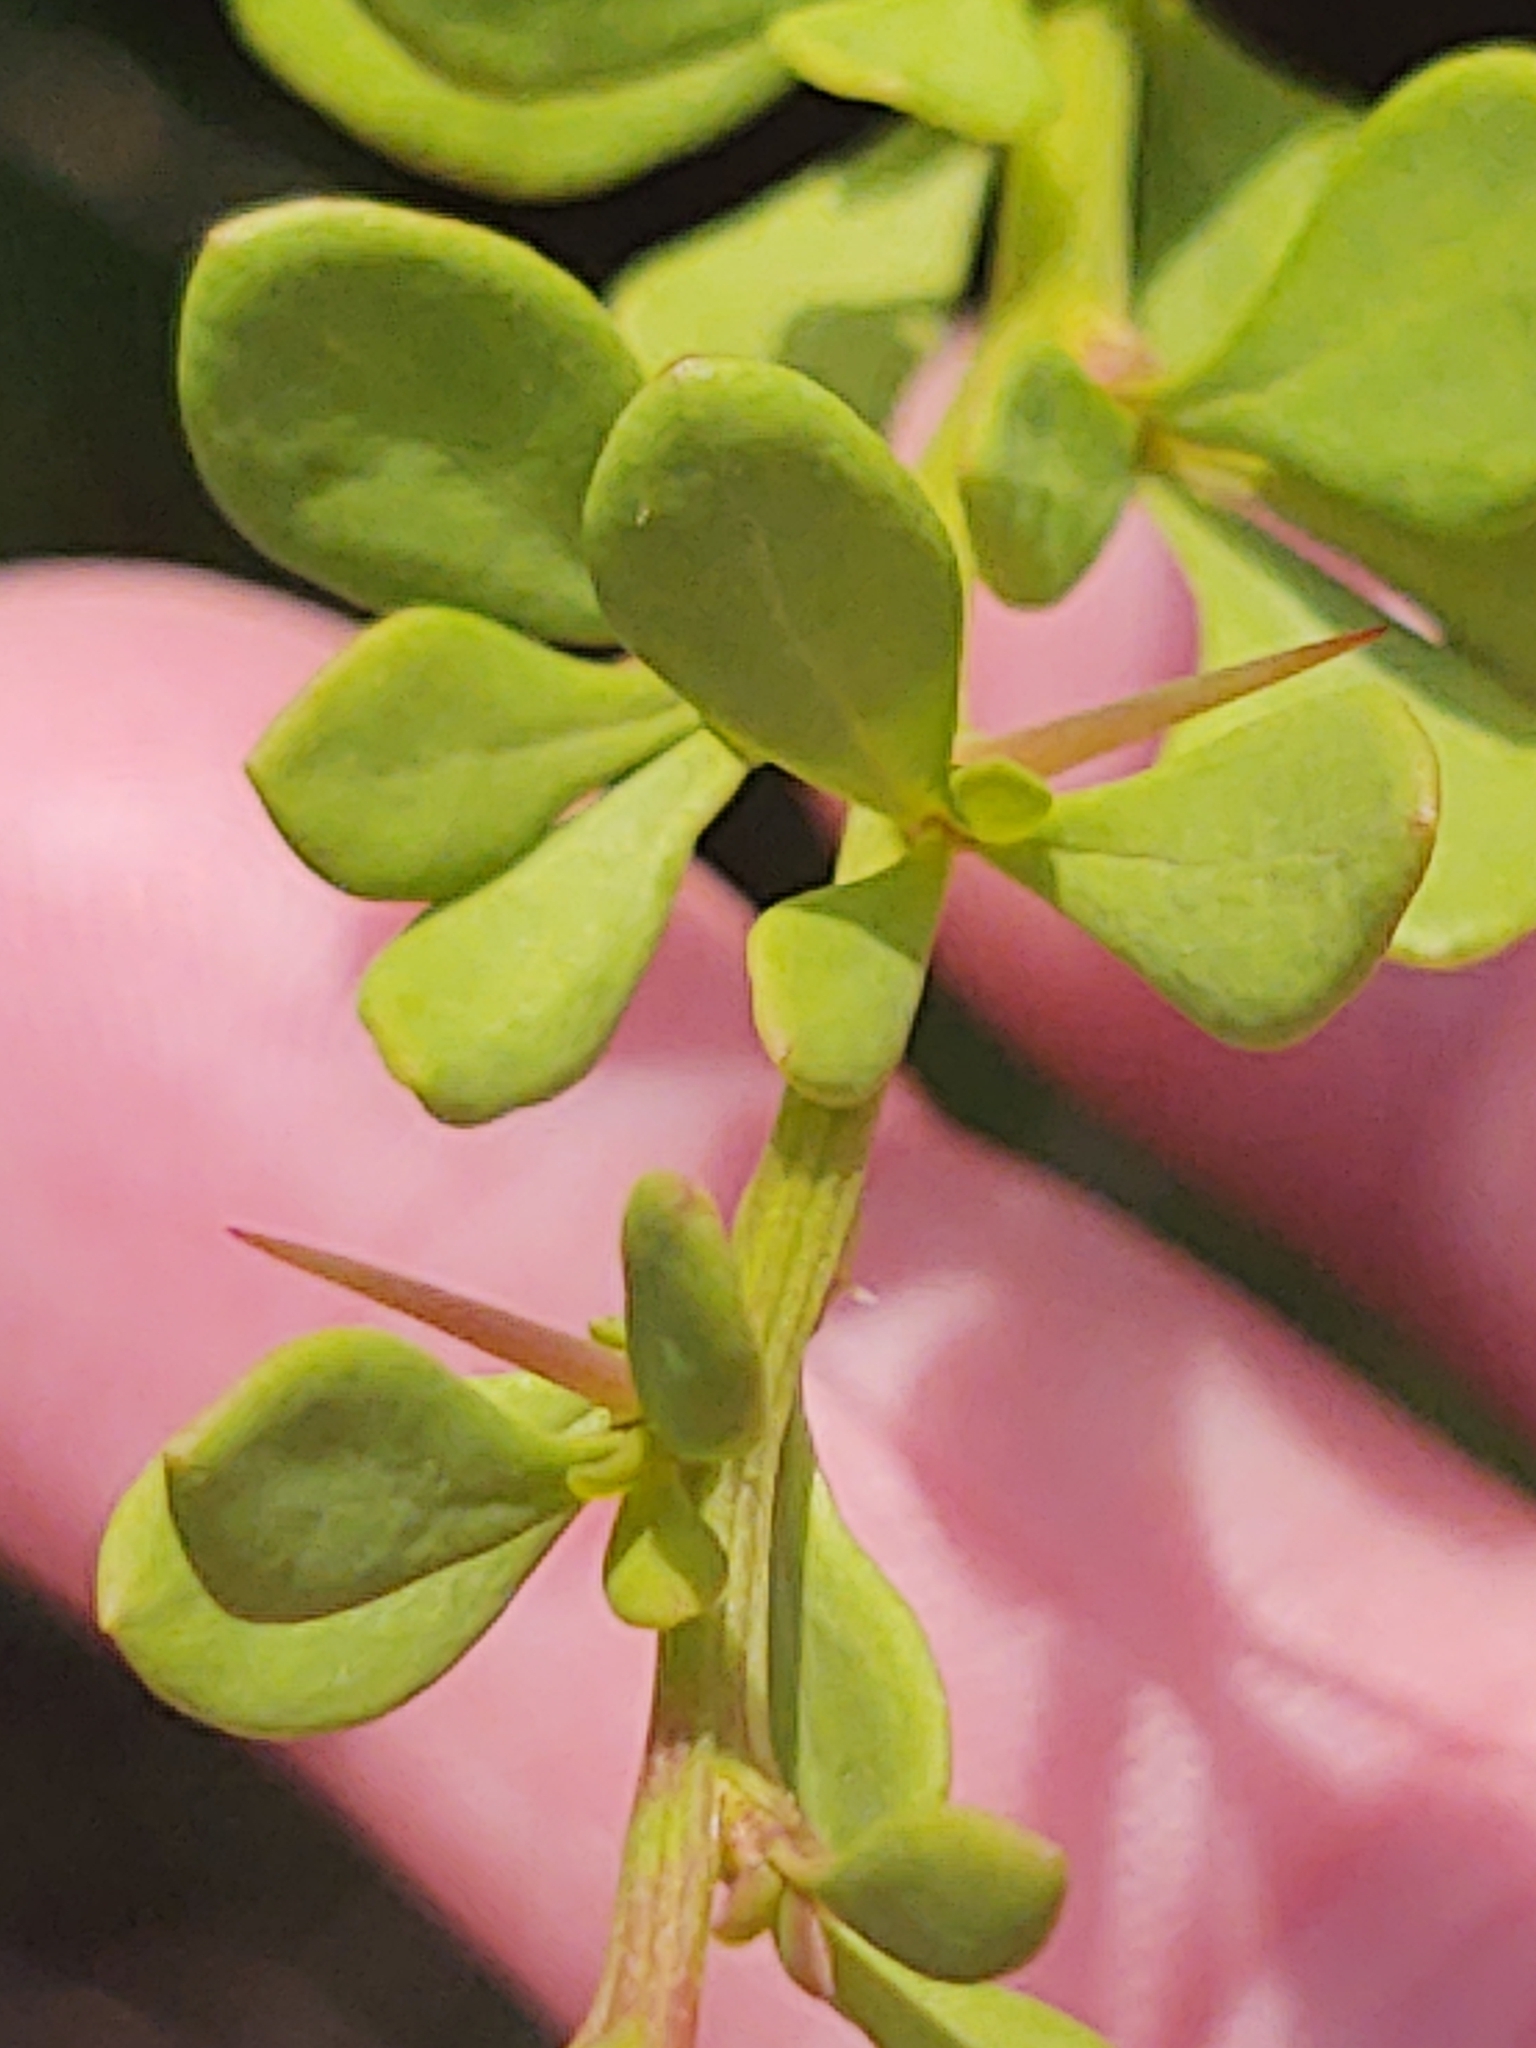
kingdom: Plantae
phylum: Tracheophyta
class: Magnoliopsida
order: Ranunculales
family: Berberidaceae
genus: Berberis
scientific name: Berberis thunbergii
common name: Japanese barberry
